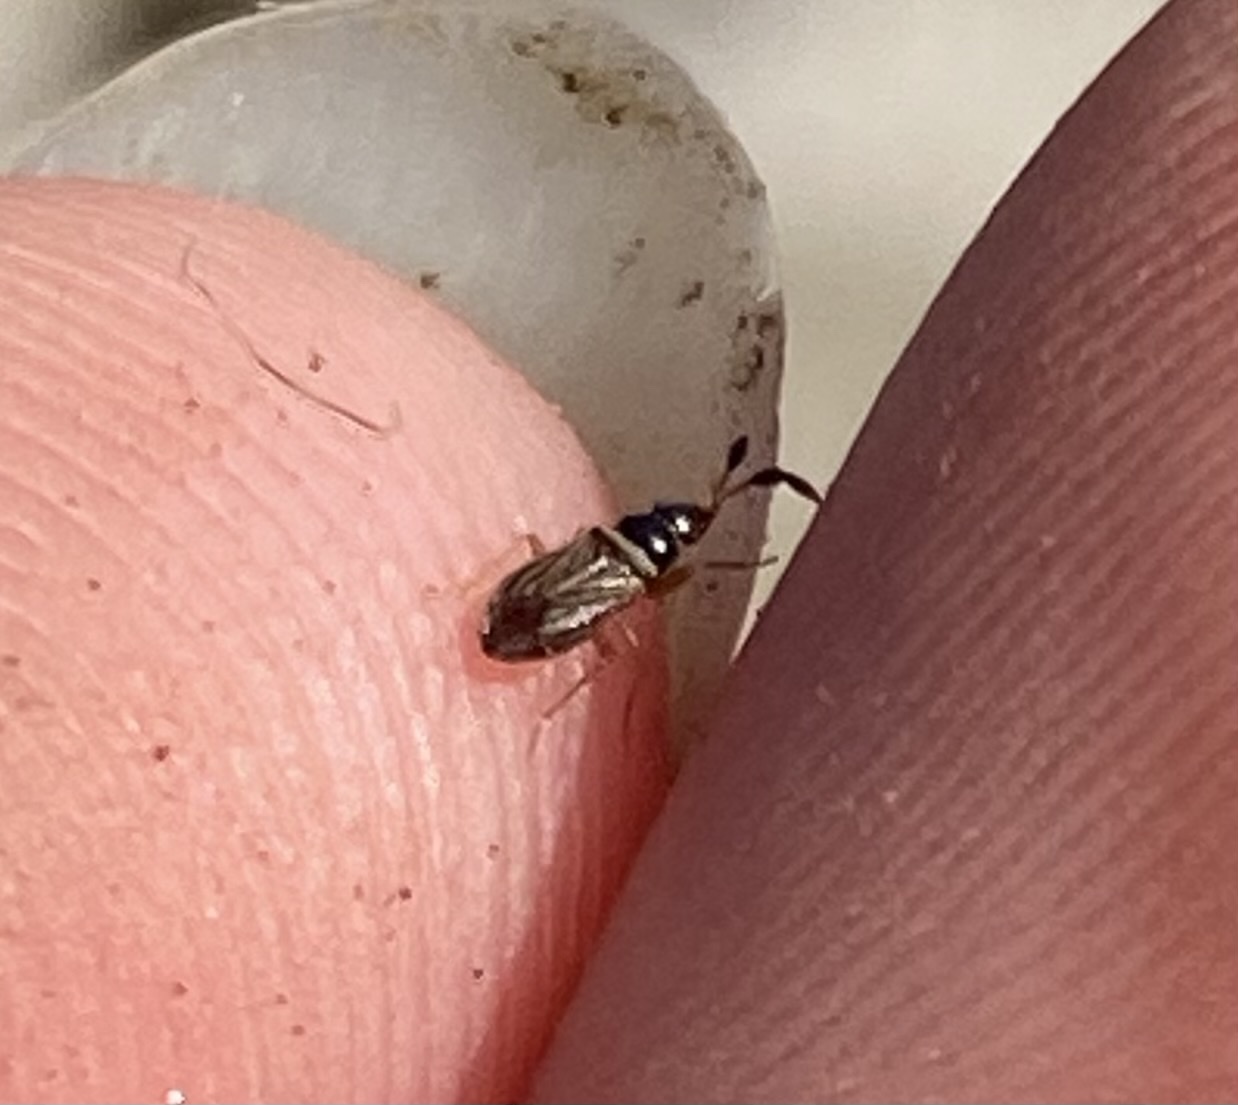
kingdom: Animalia
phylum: Arthropoda
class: Insecta
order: Hemiptera
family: Rhyparochromidae
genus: Ptochiomera
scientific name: Ptochiomera nodosa
